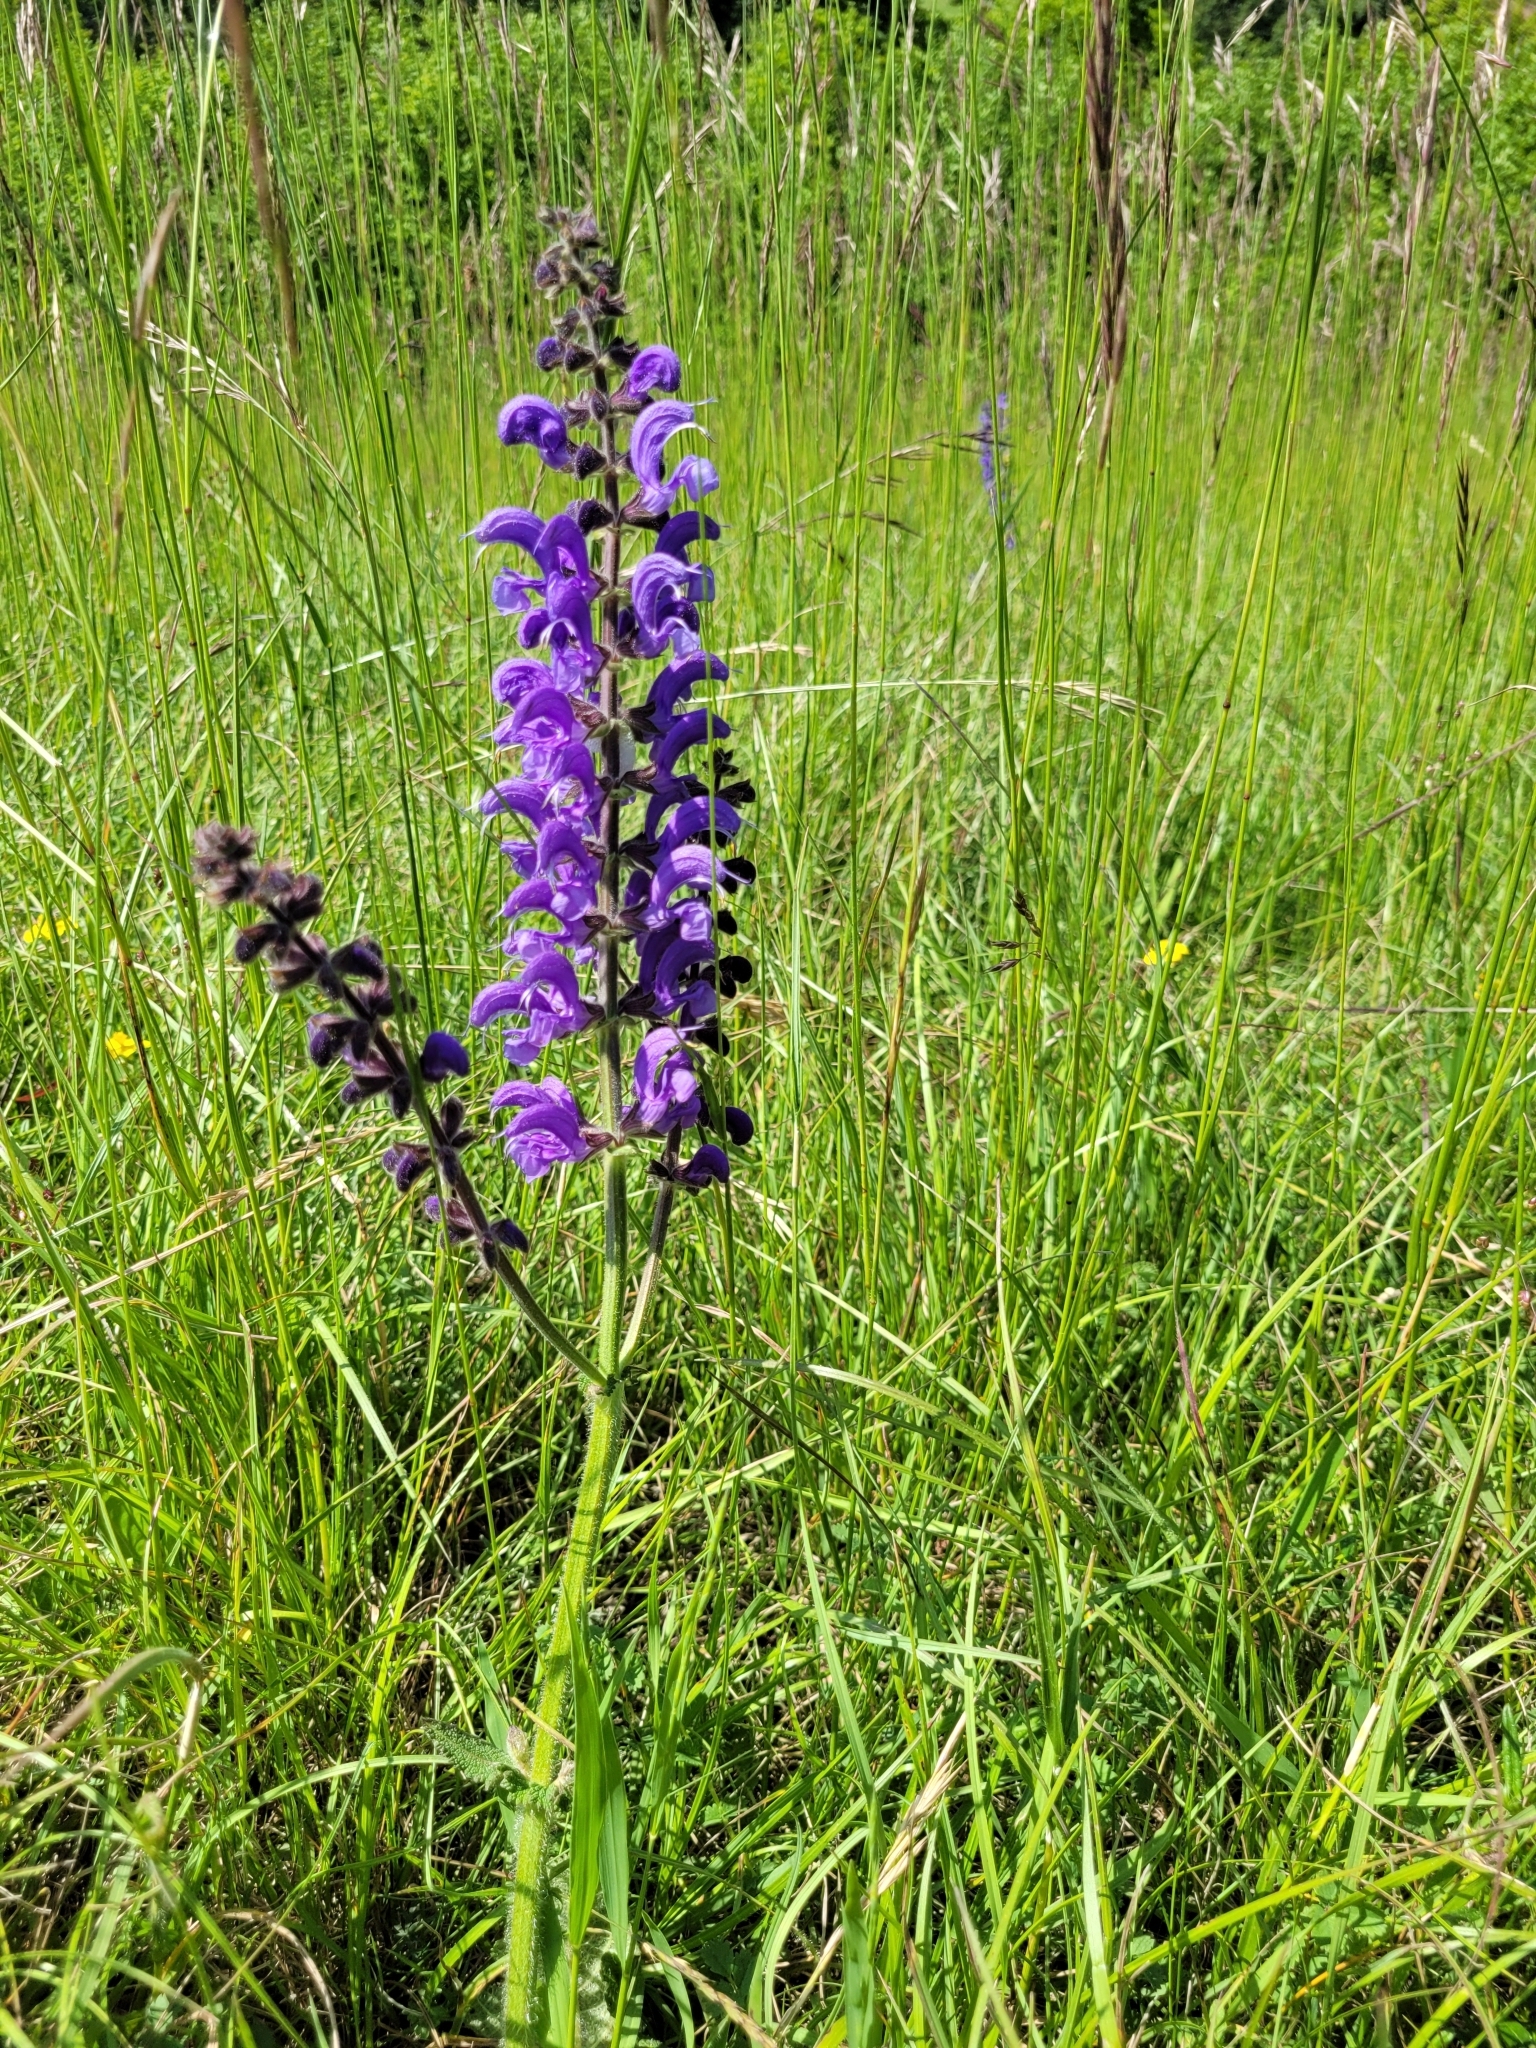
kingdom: Plantae
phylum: Tracheophyta
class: Magnoliopsida
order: Lamiales
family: Lamiaceae
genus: Salvia
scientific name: Salvia pratensis
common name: Meadow sage
